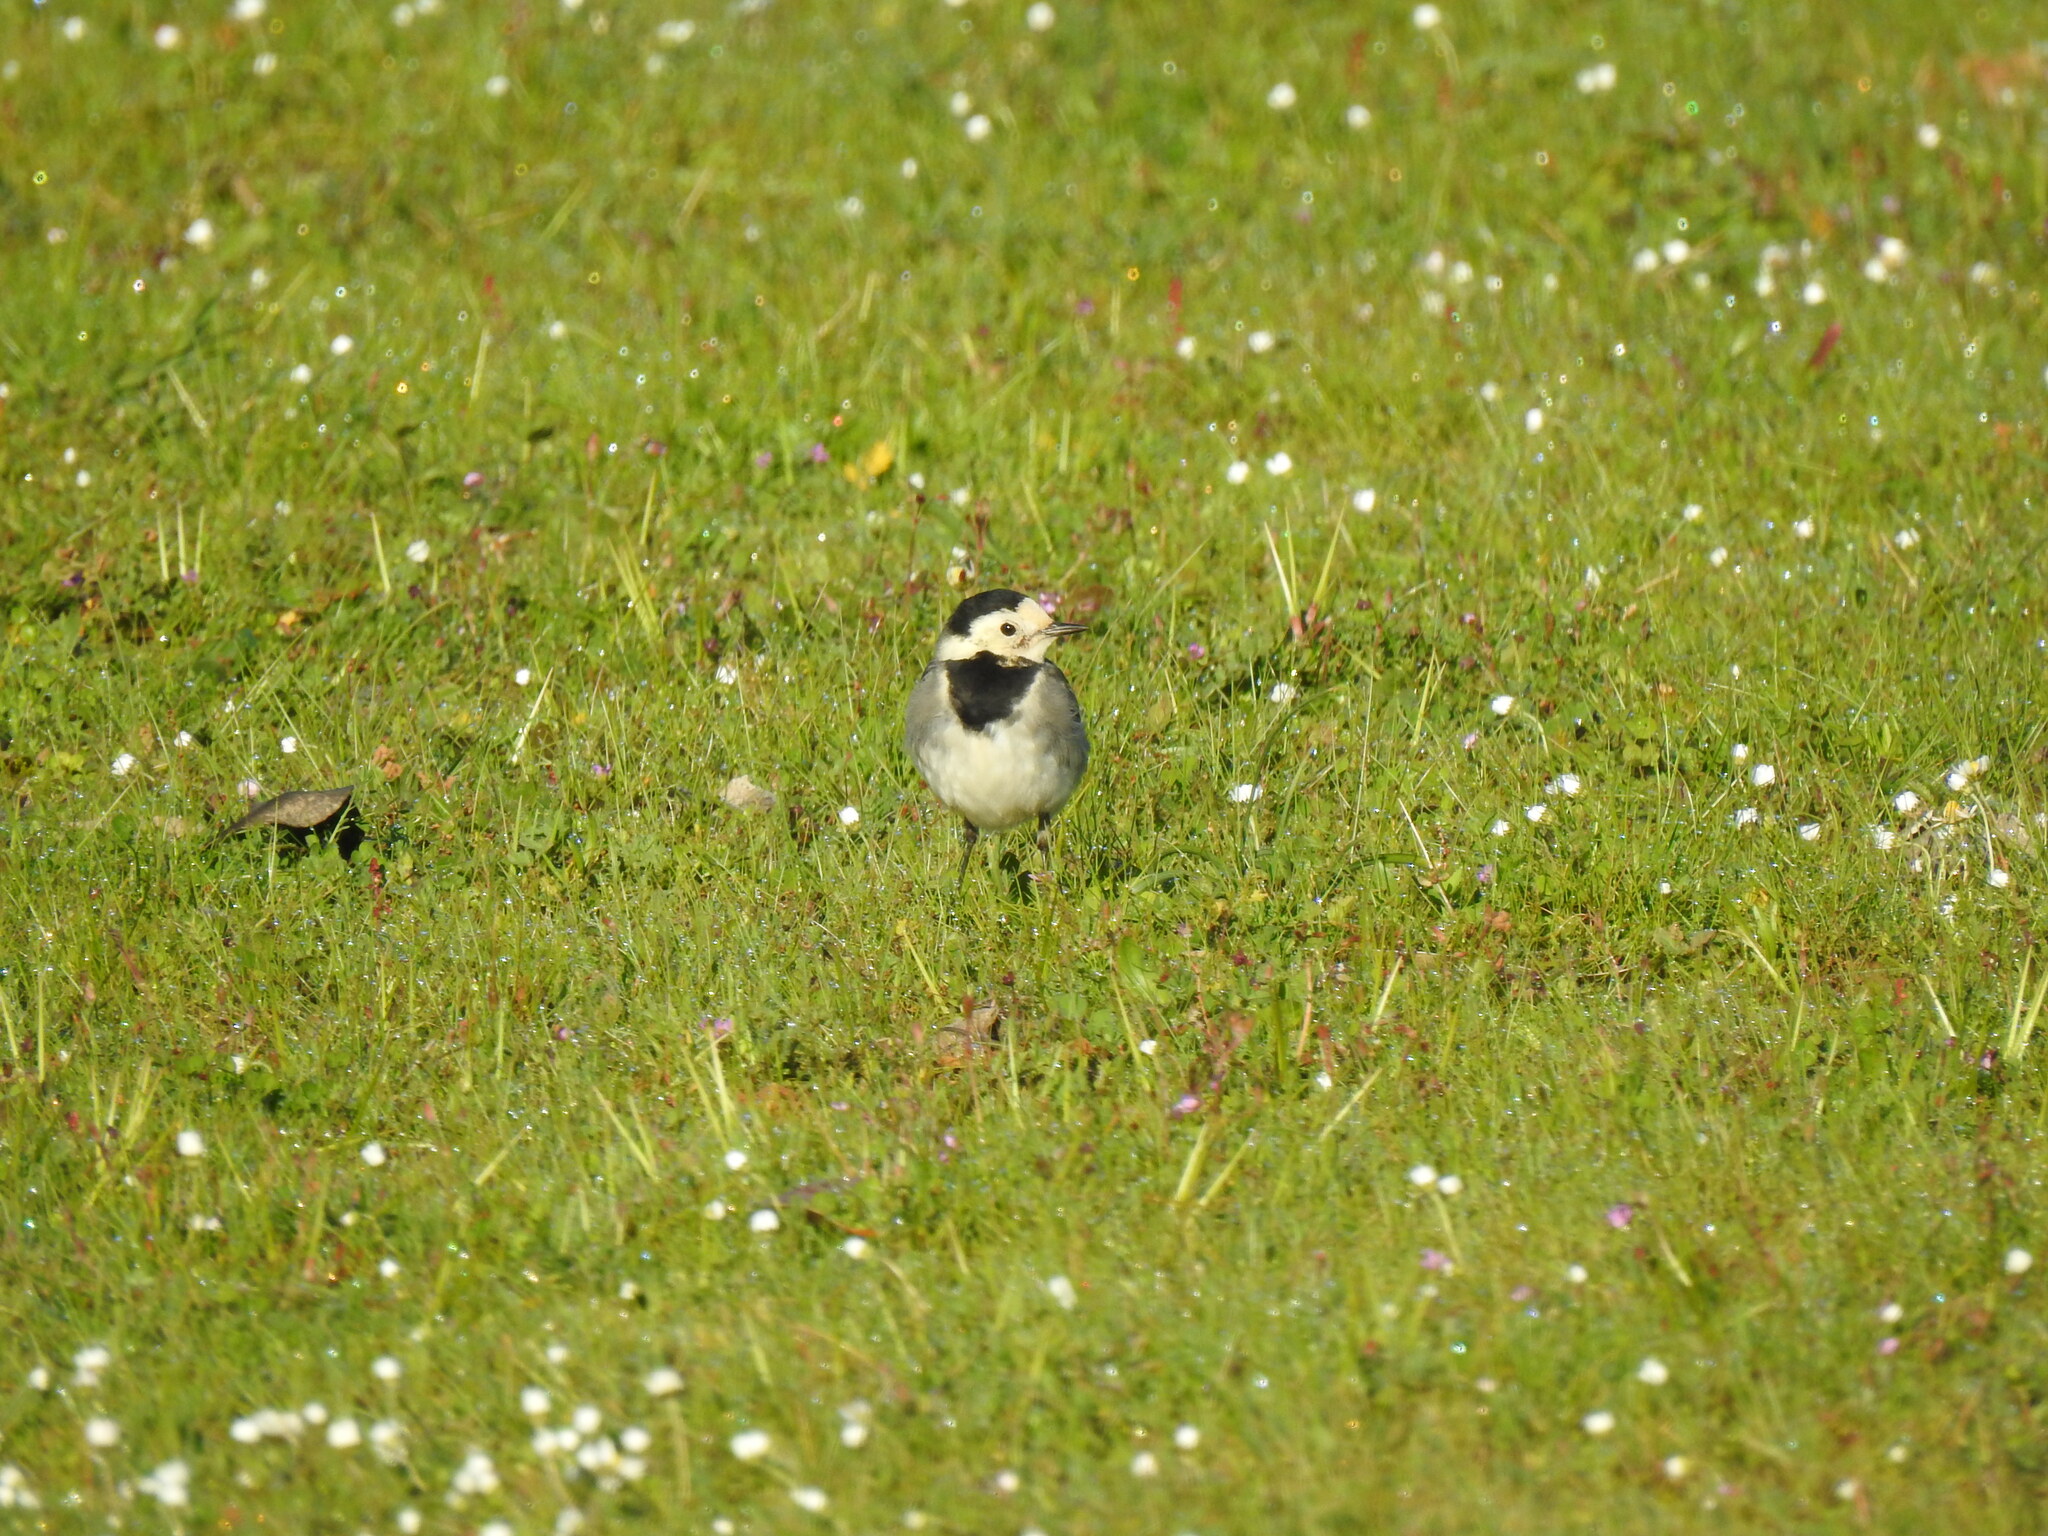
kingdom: Animalia
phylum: Chordata
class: Aves
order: Passeriformes
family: Motacillidae
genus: Motacilla
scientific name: Motacilla alba
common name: White wagtail
